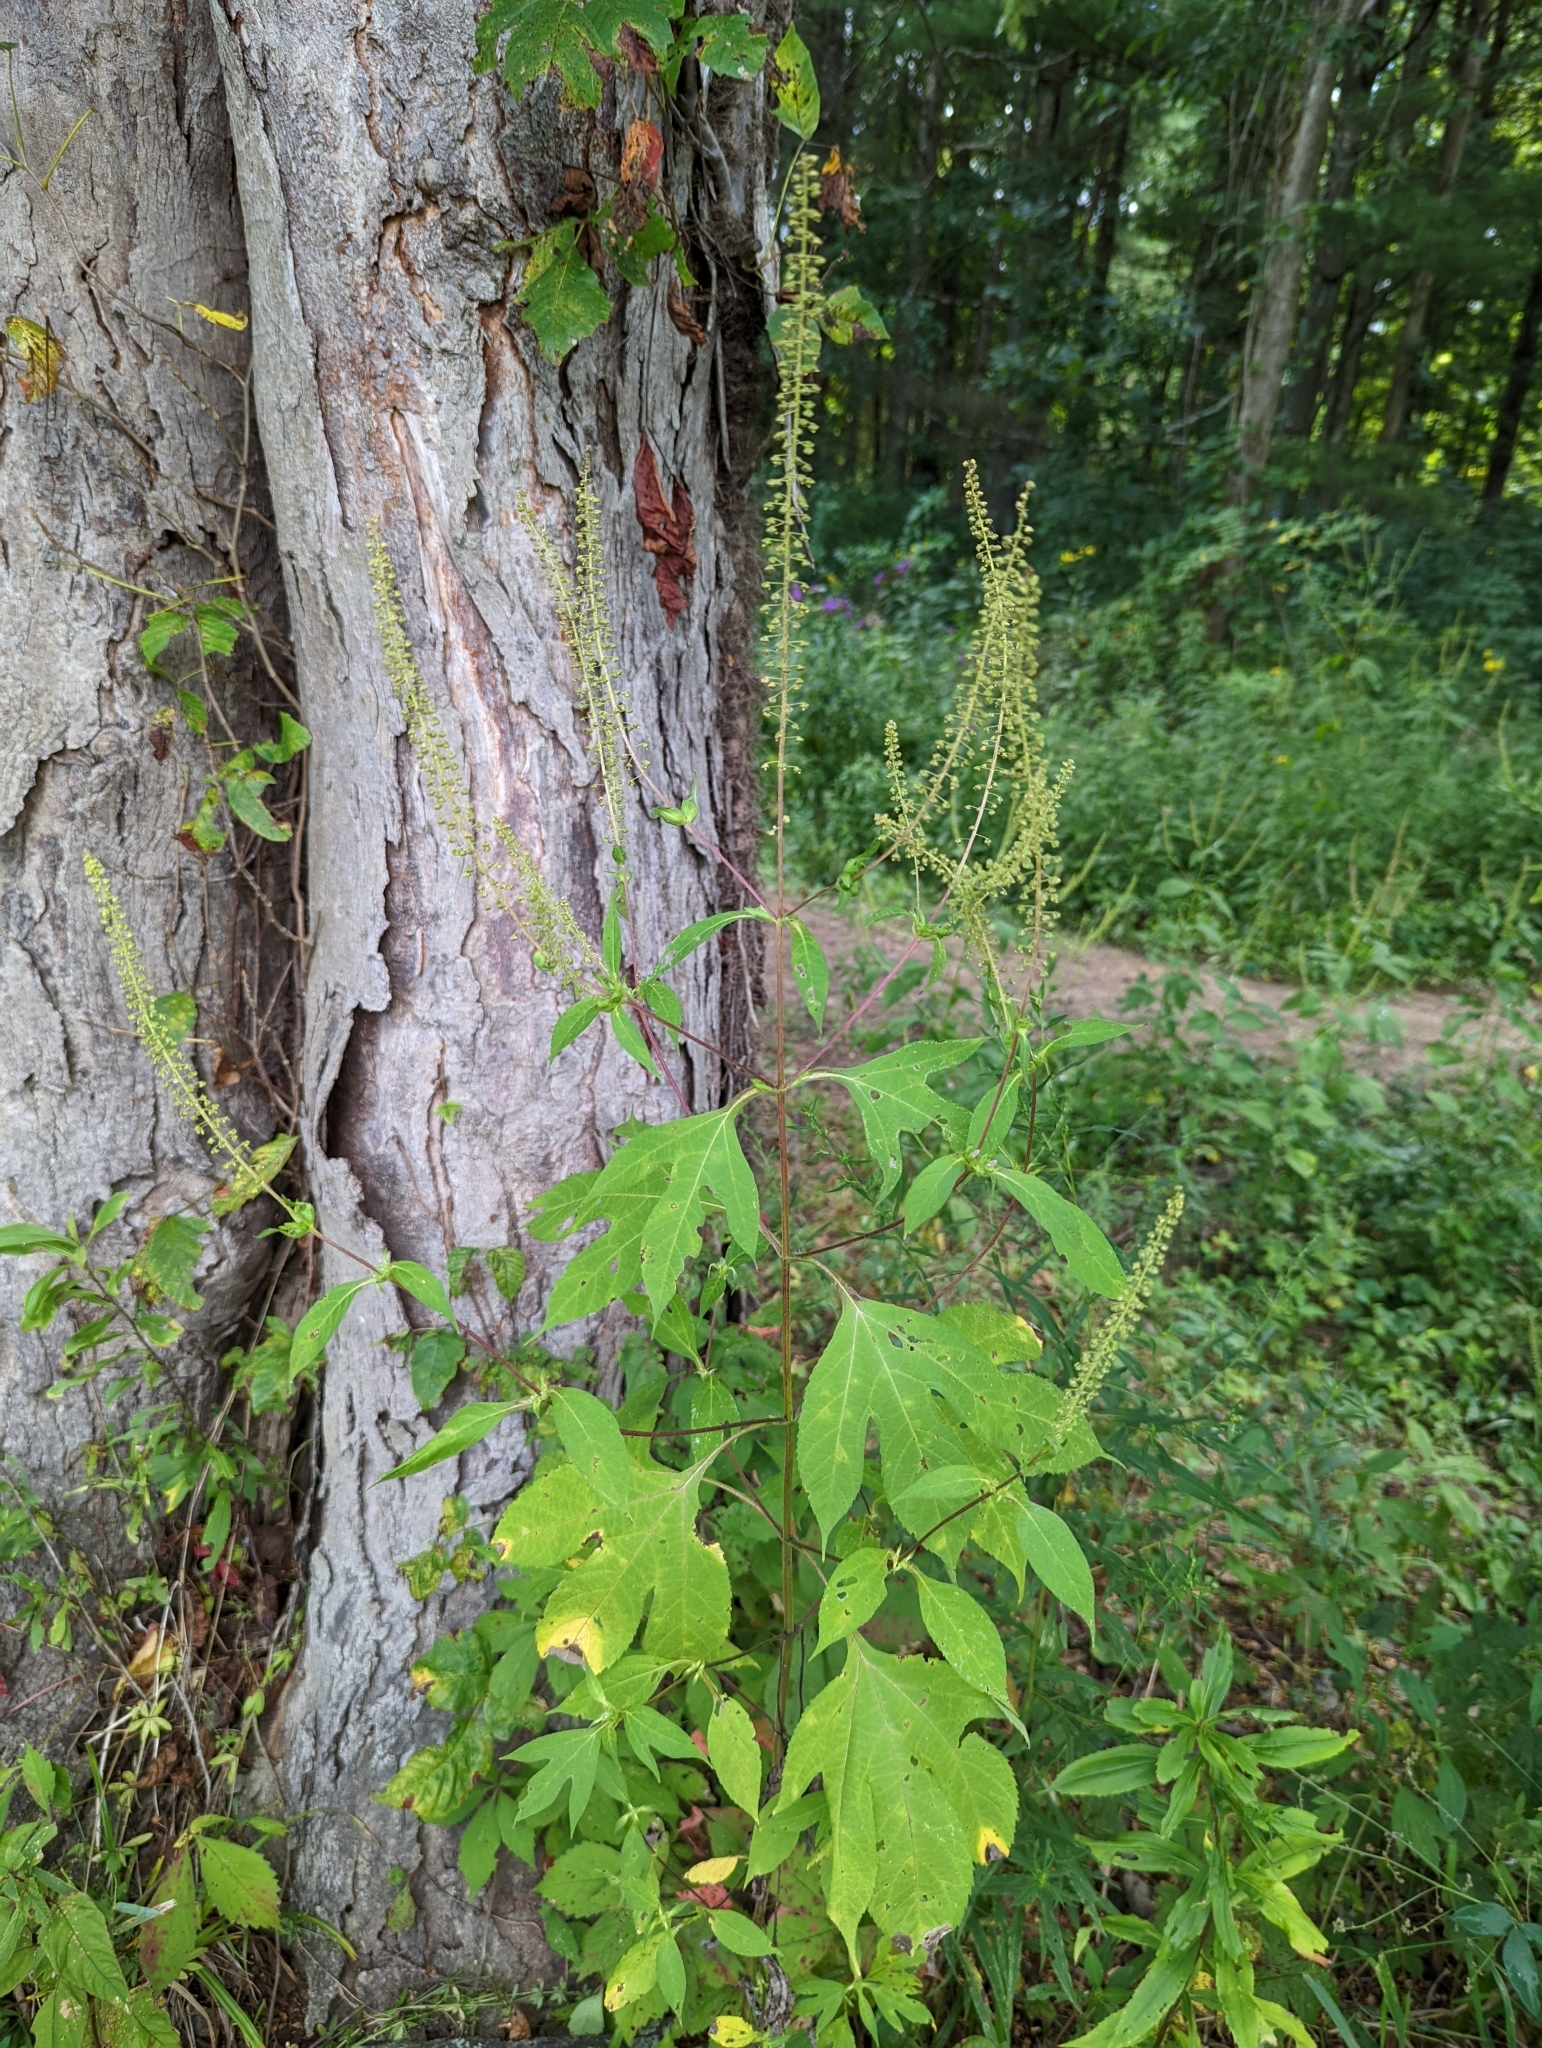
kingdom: Plantae
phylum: Tracheophyta
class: Magnoliopsida
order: Asterales
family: Asteraceae
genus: Ambrosia
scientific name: Ambrosia trifida
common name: Giant ragweed
